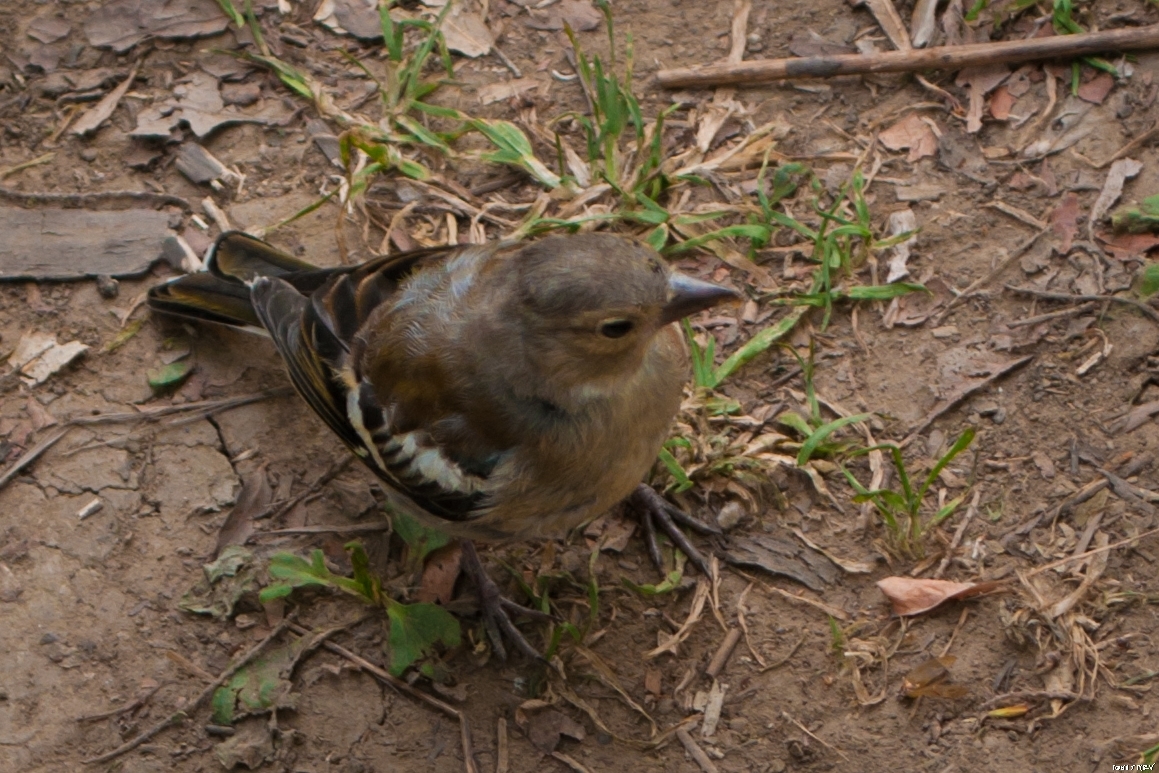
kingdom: Animalia
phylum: Chordata
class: Aves
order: Passeriformes
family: Fringillidae
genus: Fringilla
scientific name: Fringilla coelebs
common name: Common chaffinch
